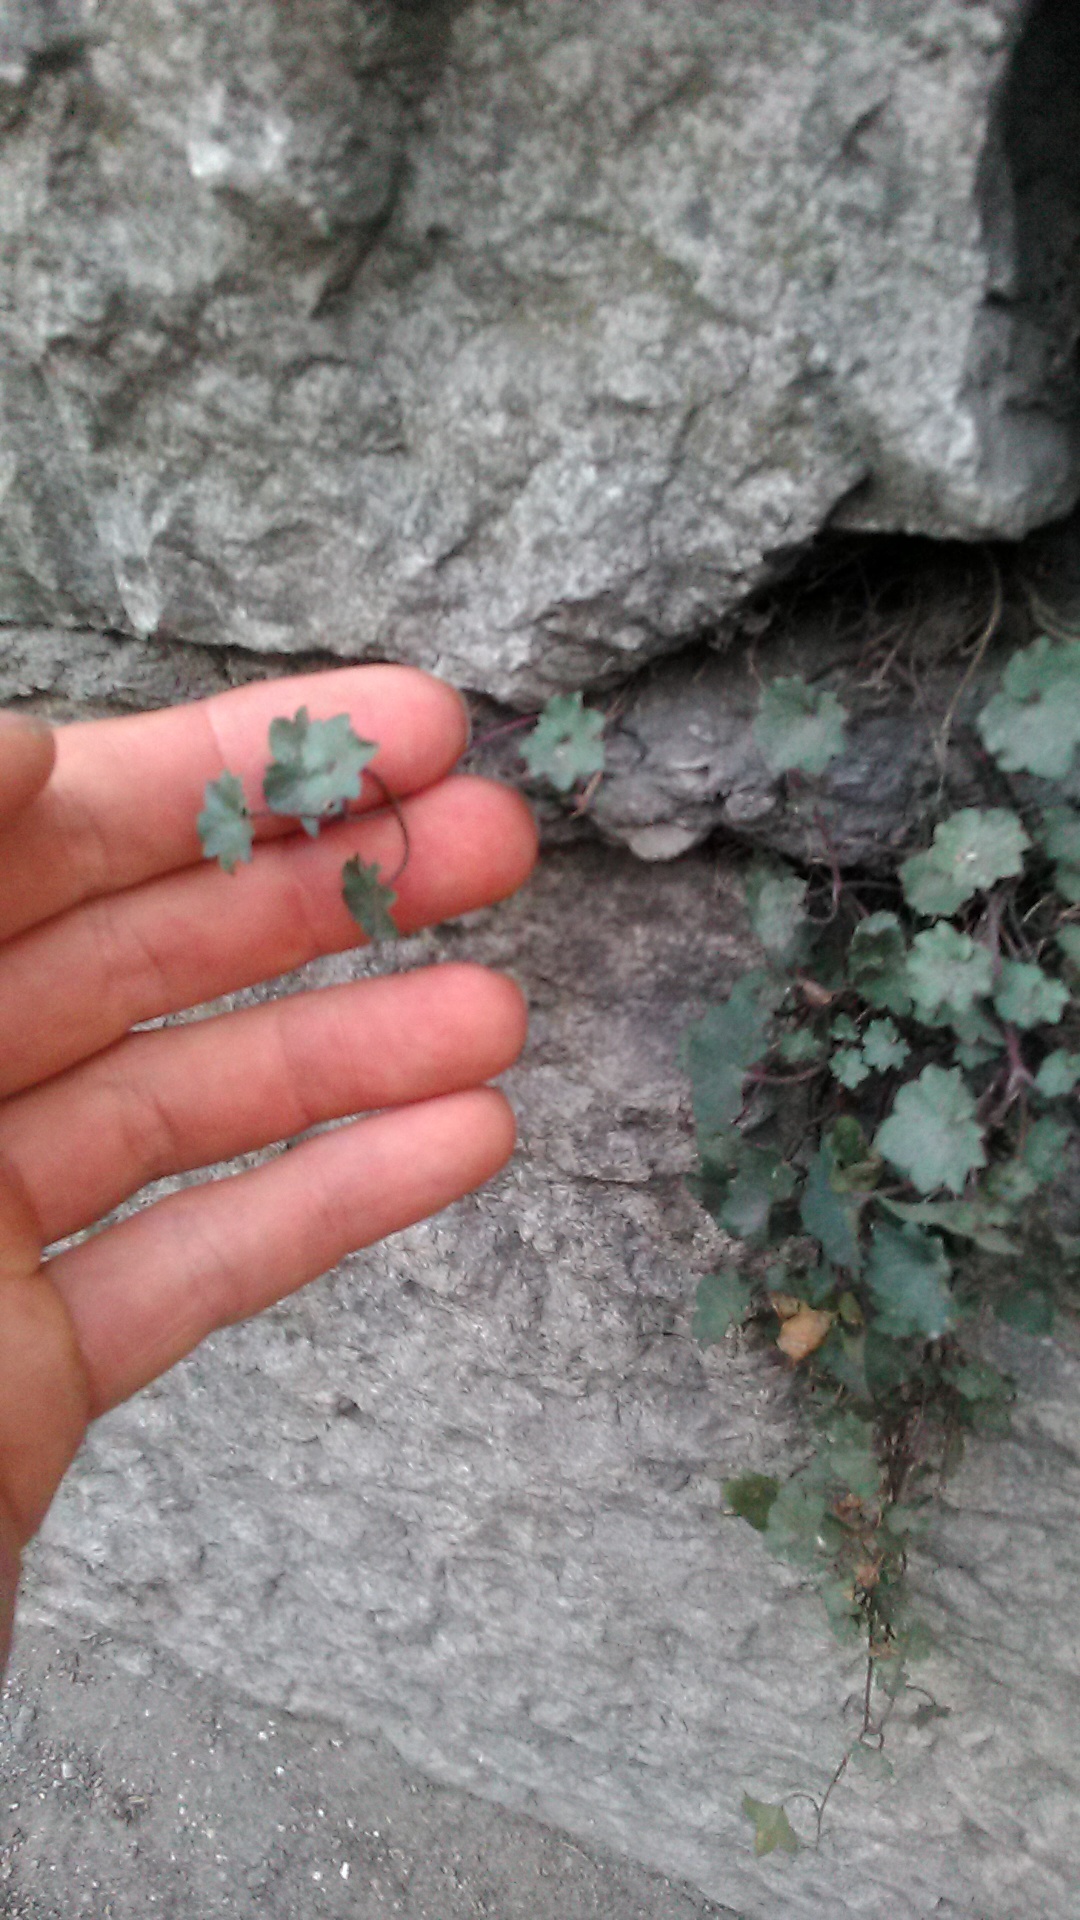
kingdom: Plantae
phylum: Tracheophyta
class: Magnoliopsida
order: Lamiales
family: Plantaginaceae
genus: Cymbalaria
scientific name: Cymbalaria muralis
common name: Ivy-leaved toadflax
